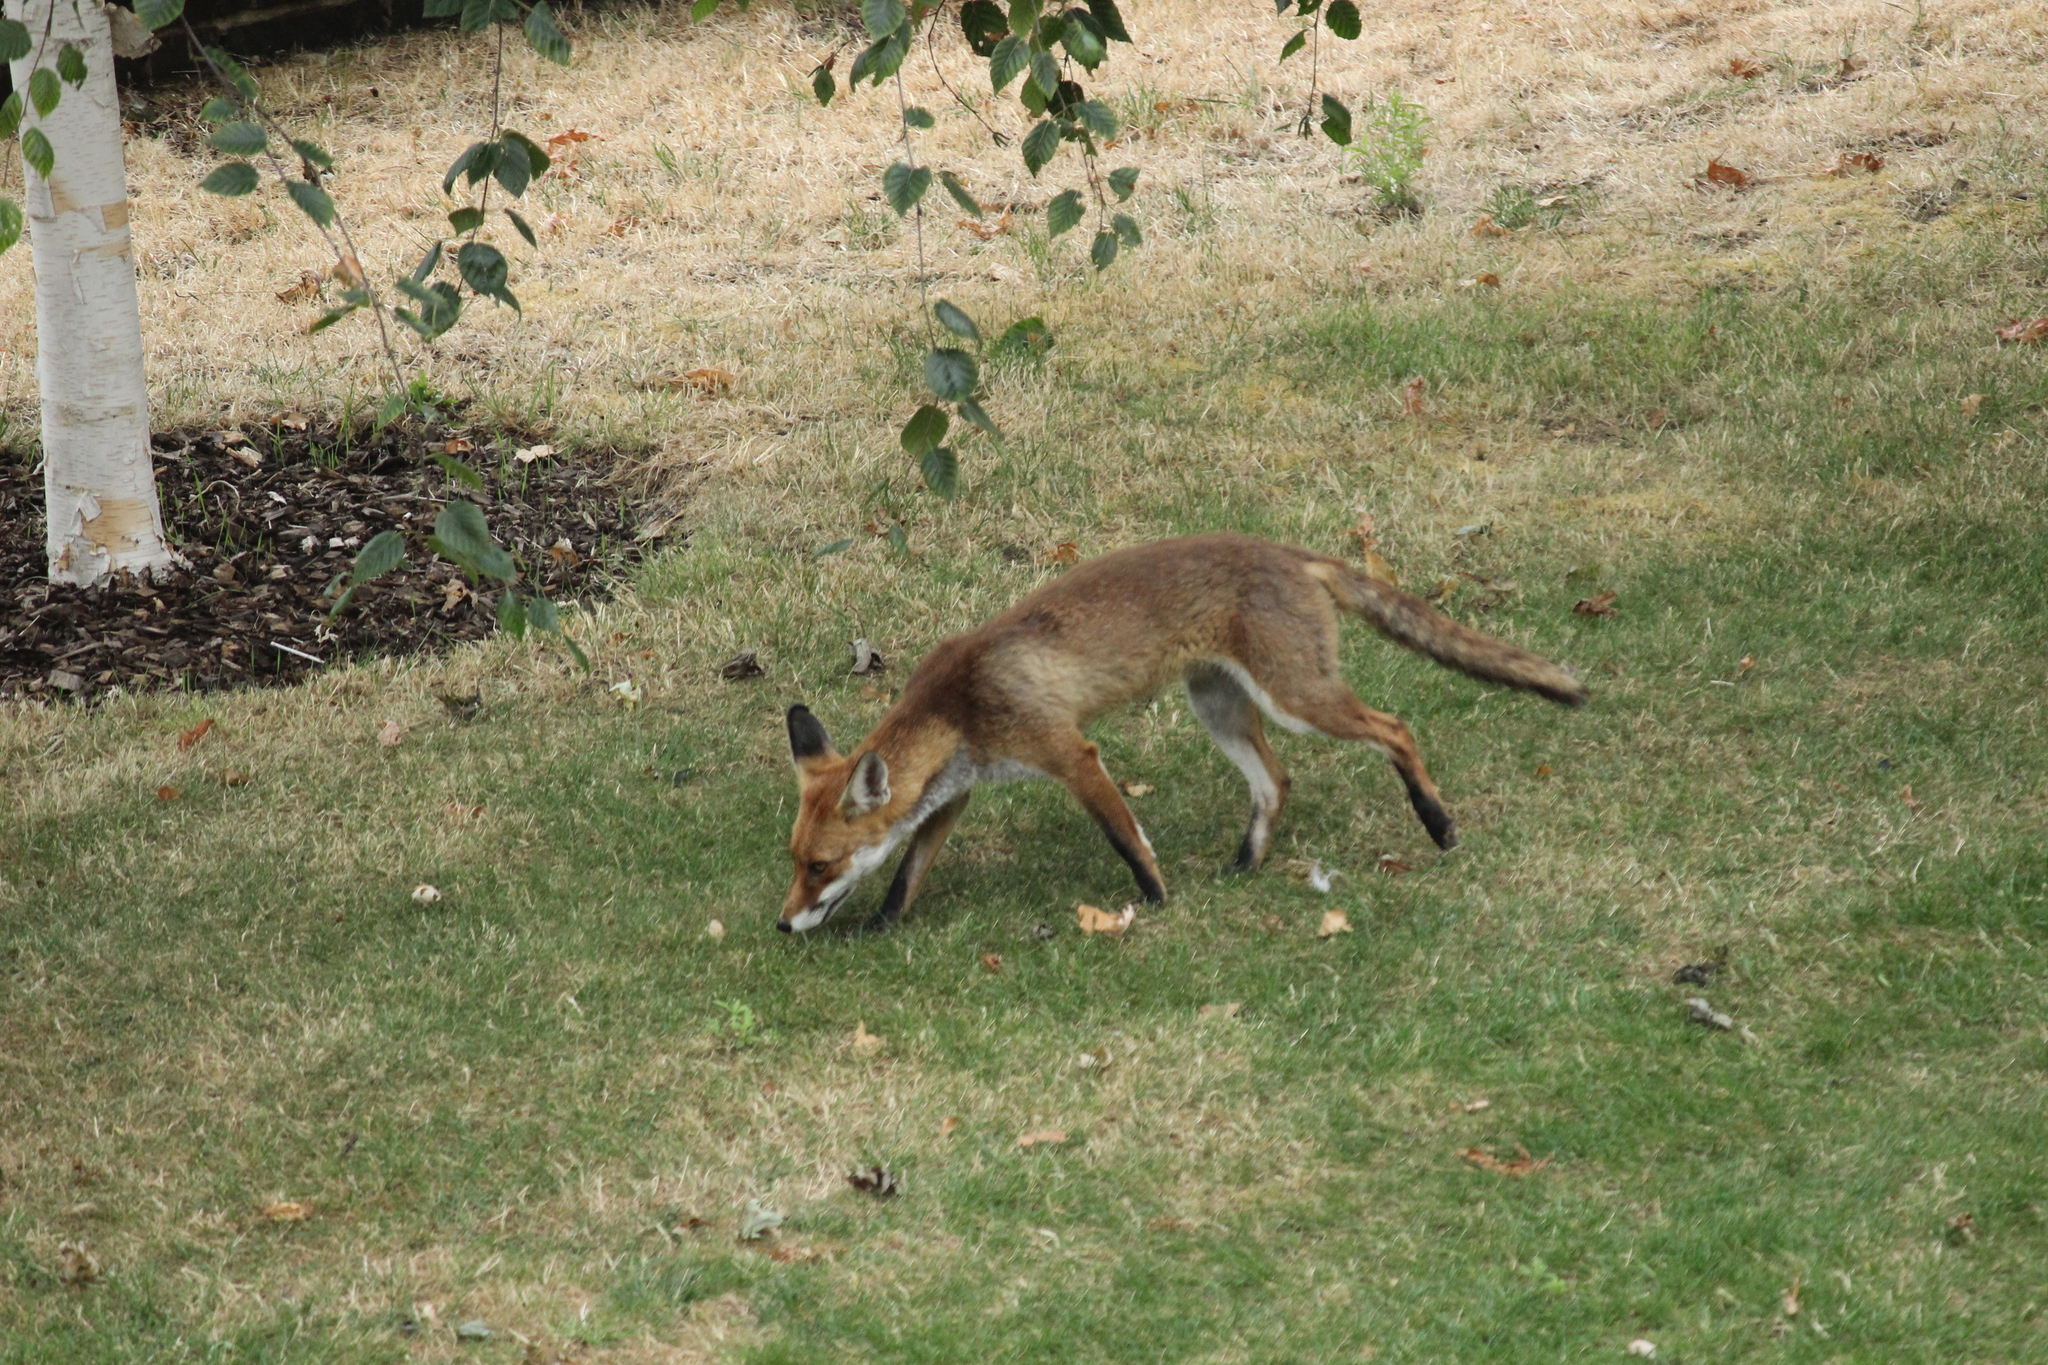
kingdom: Animalia
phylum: Chordata
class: Mammalia
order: Carnivora
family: Canidae
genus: Vulpes
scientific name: Vulpes vulpes
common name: Red fox
